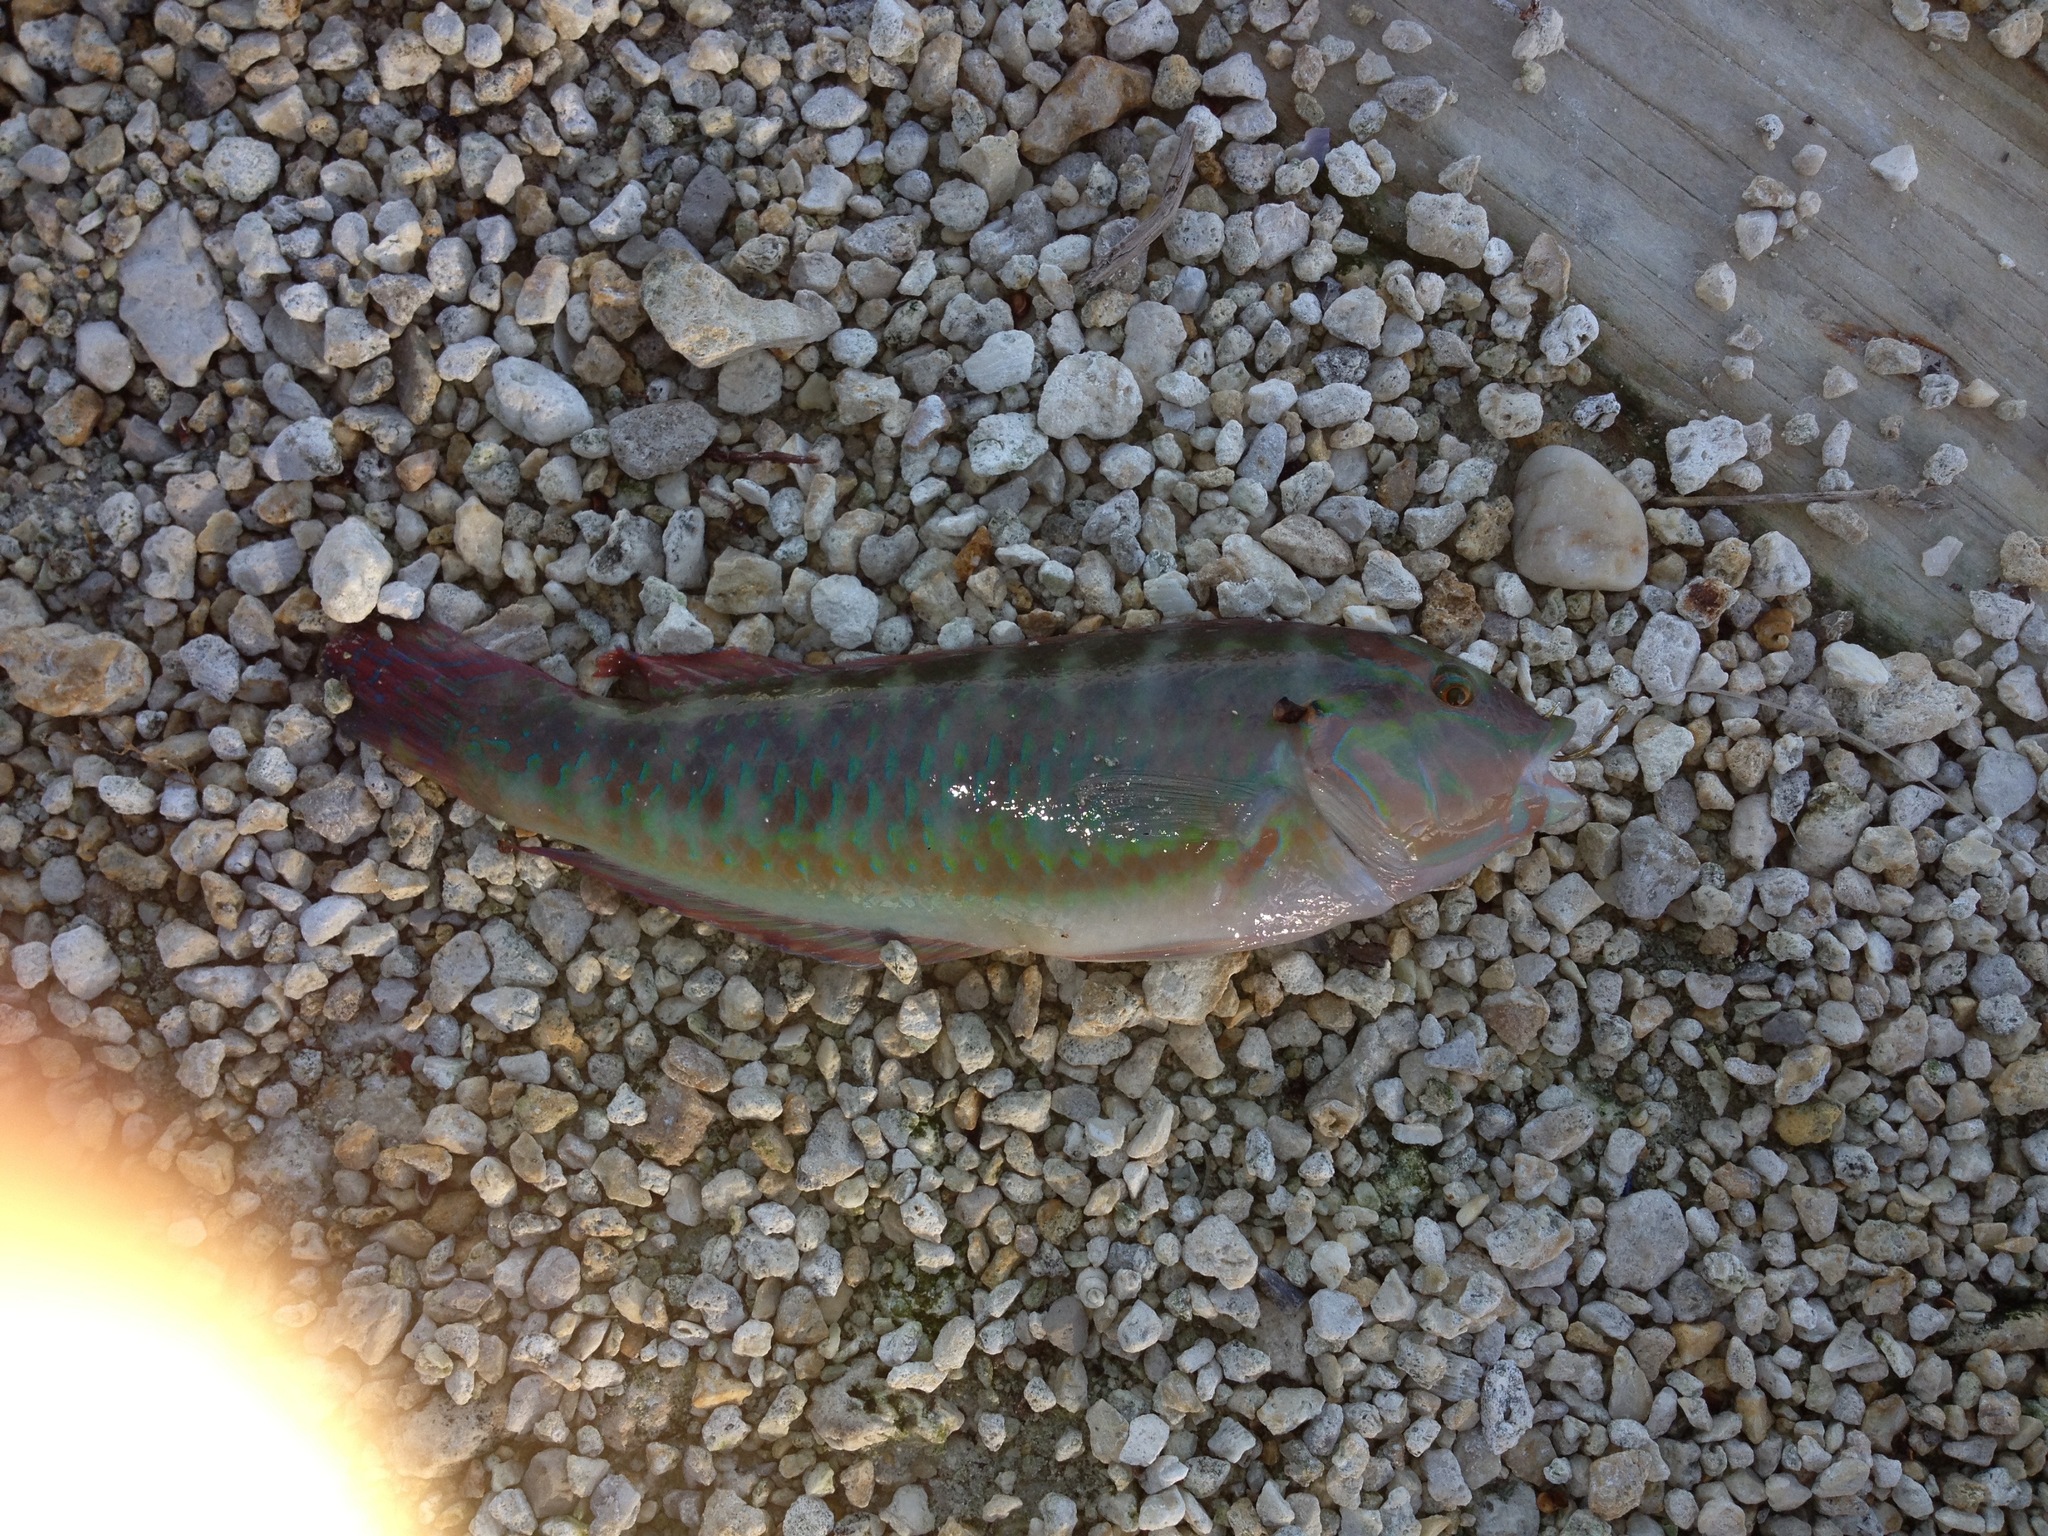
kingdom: Animalia
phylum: Chordata
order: Perciformes
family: Labridae
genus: Halichoeres
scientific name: Halichoeres bivittatus
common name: Slippery dick
